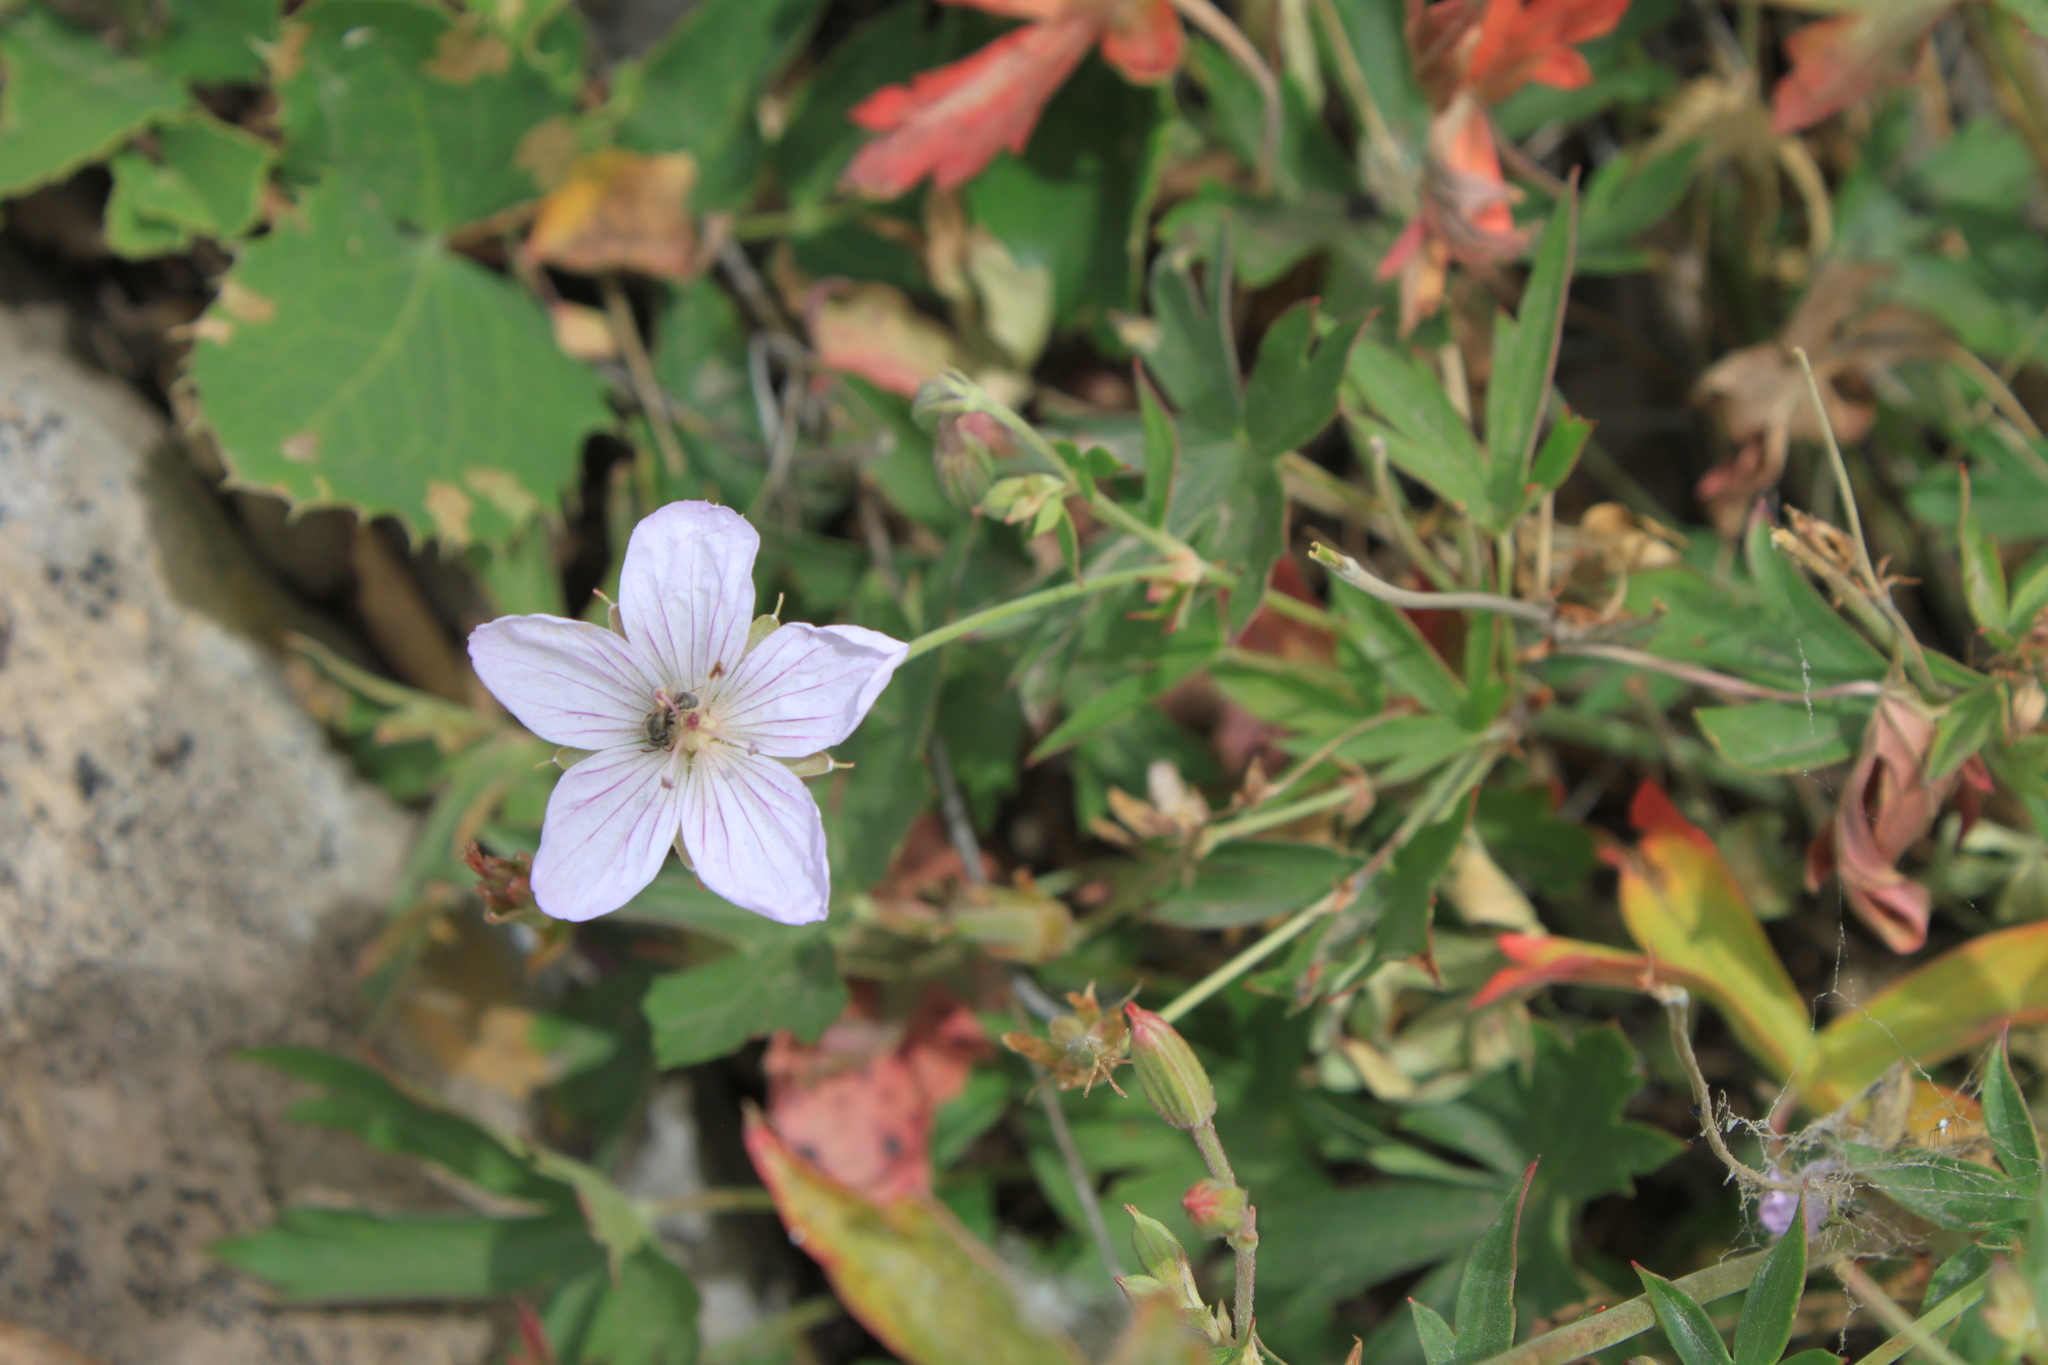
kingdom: Plantae
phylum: Tracheophyta
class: Magnoliopsida
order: Geraniales
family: Geraniaceae
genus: Geranium
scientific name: Geranium richardsonii
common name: Richardson's crane's-bill
